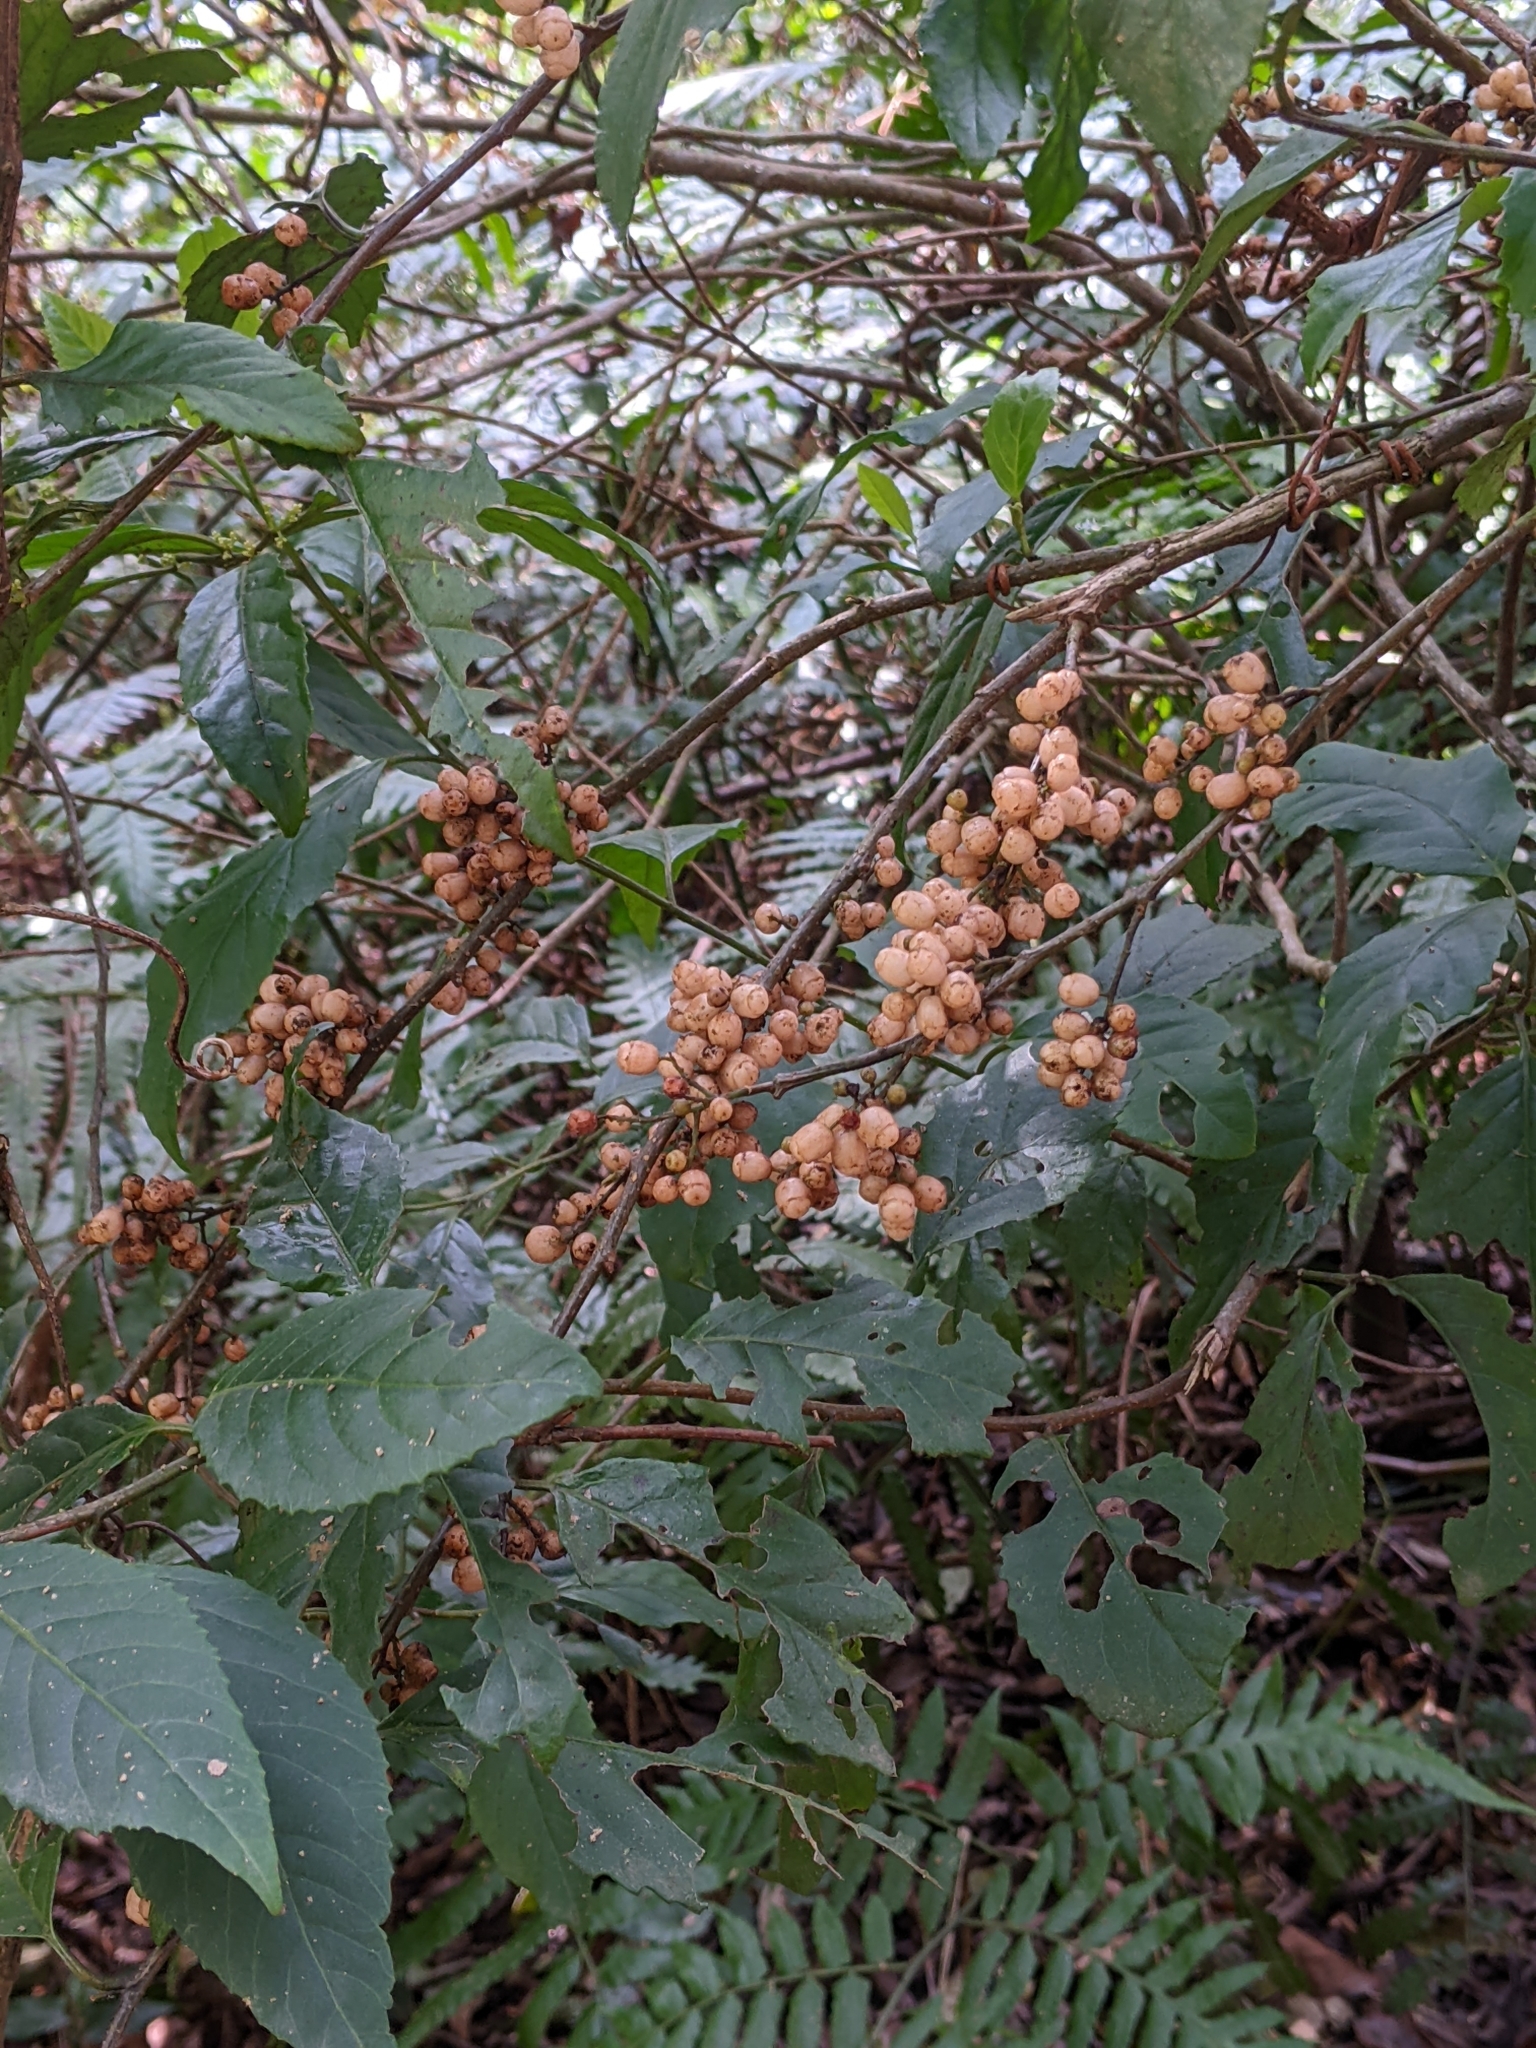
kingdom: Plantae
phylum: Tracheophyta
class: Magnoliopsida
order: Ericales
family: Primulaceae
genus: Maesa
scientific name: Maesa perlaria
